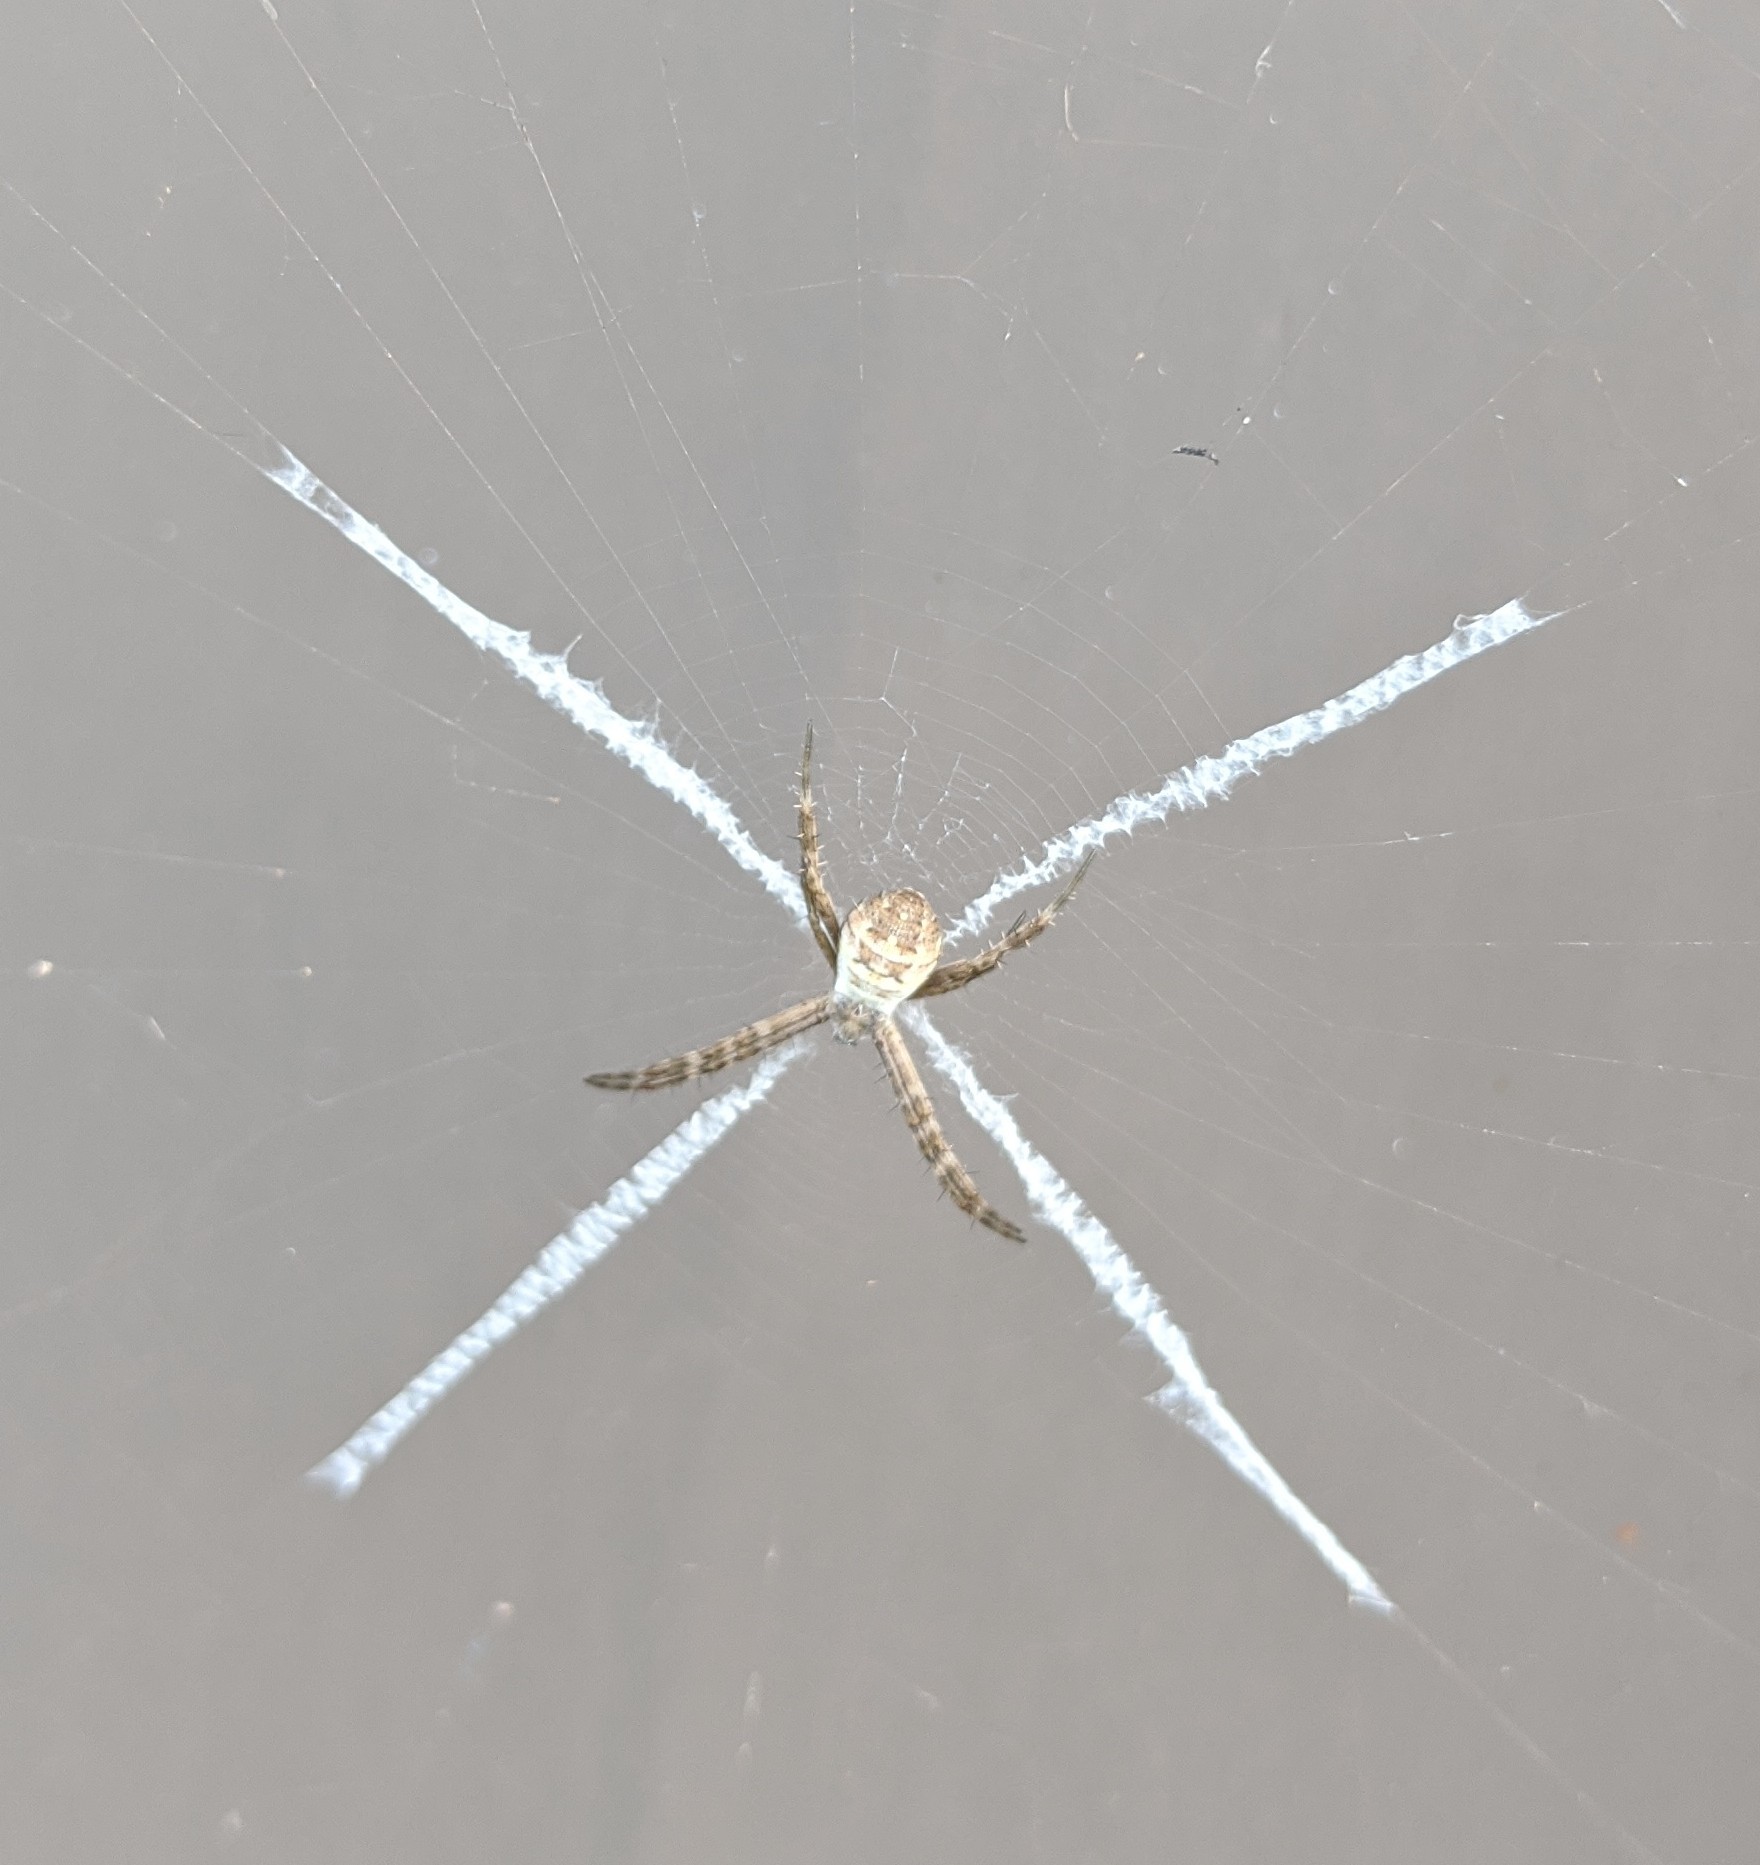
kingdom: Animalia
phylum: Arthropoda
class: Arachnida
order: Araneae
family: Araneidae
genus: Argiope
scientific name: Argiope keyserlingi
